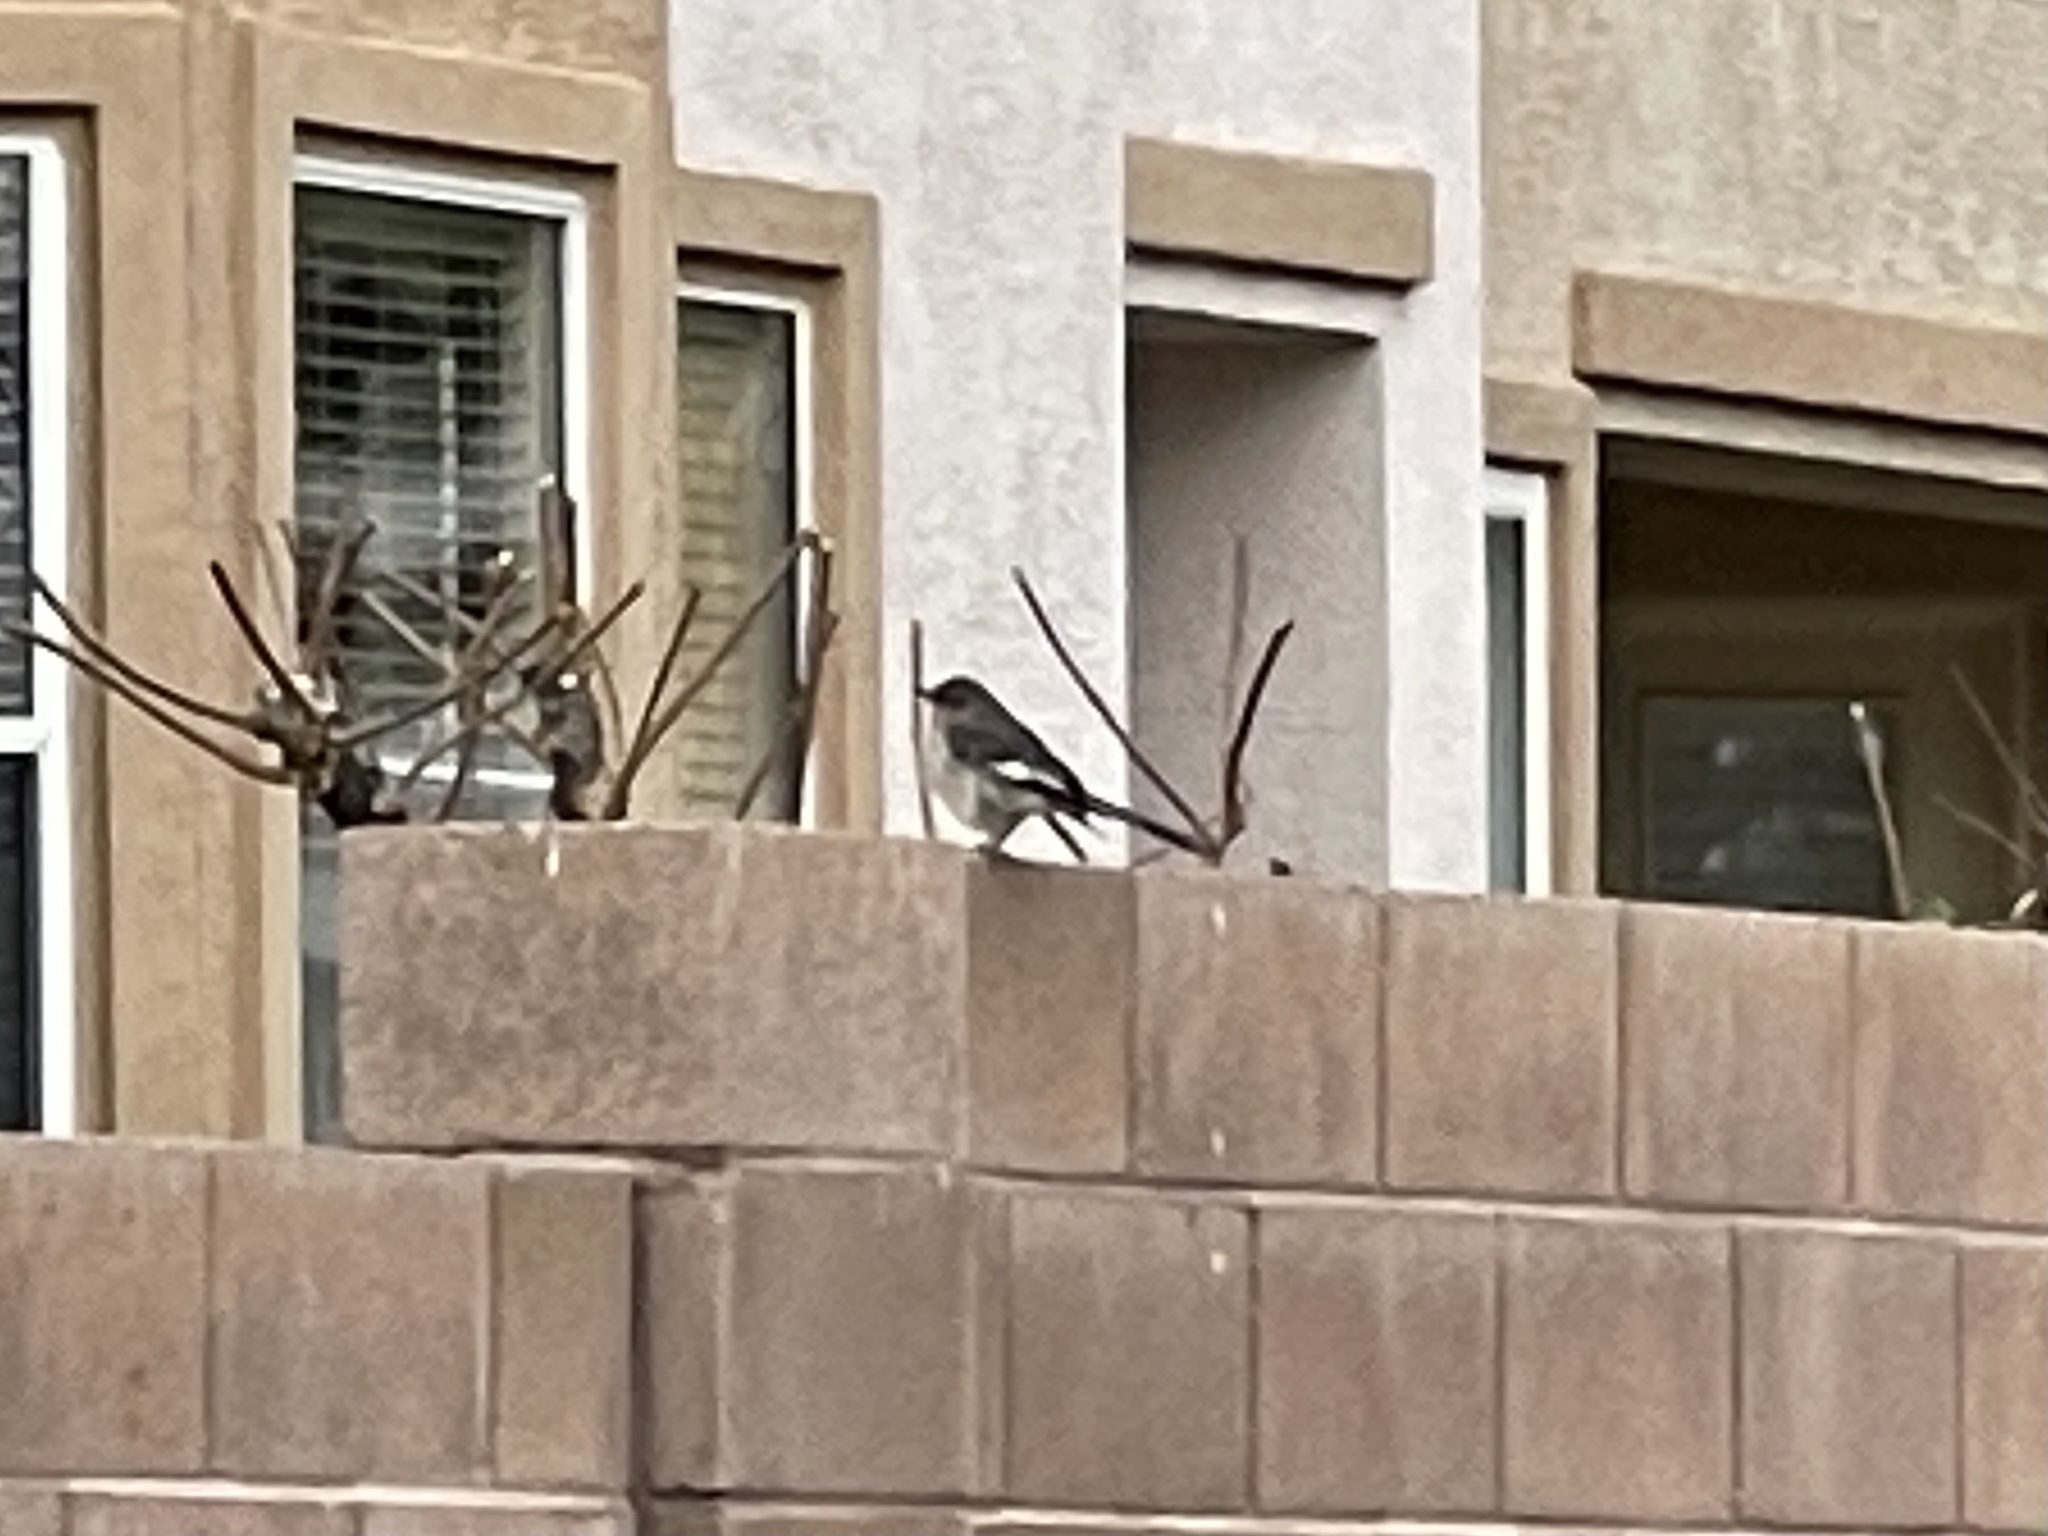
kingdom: Animalia
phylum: Chordata
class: Aves
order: Passeriformes
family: Mimidae
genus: Mimus
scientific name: Mimus polyglottos
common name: Northern mockingbird
